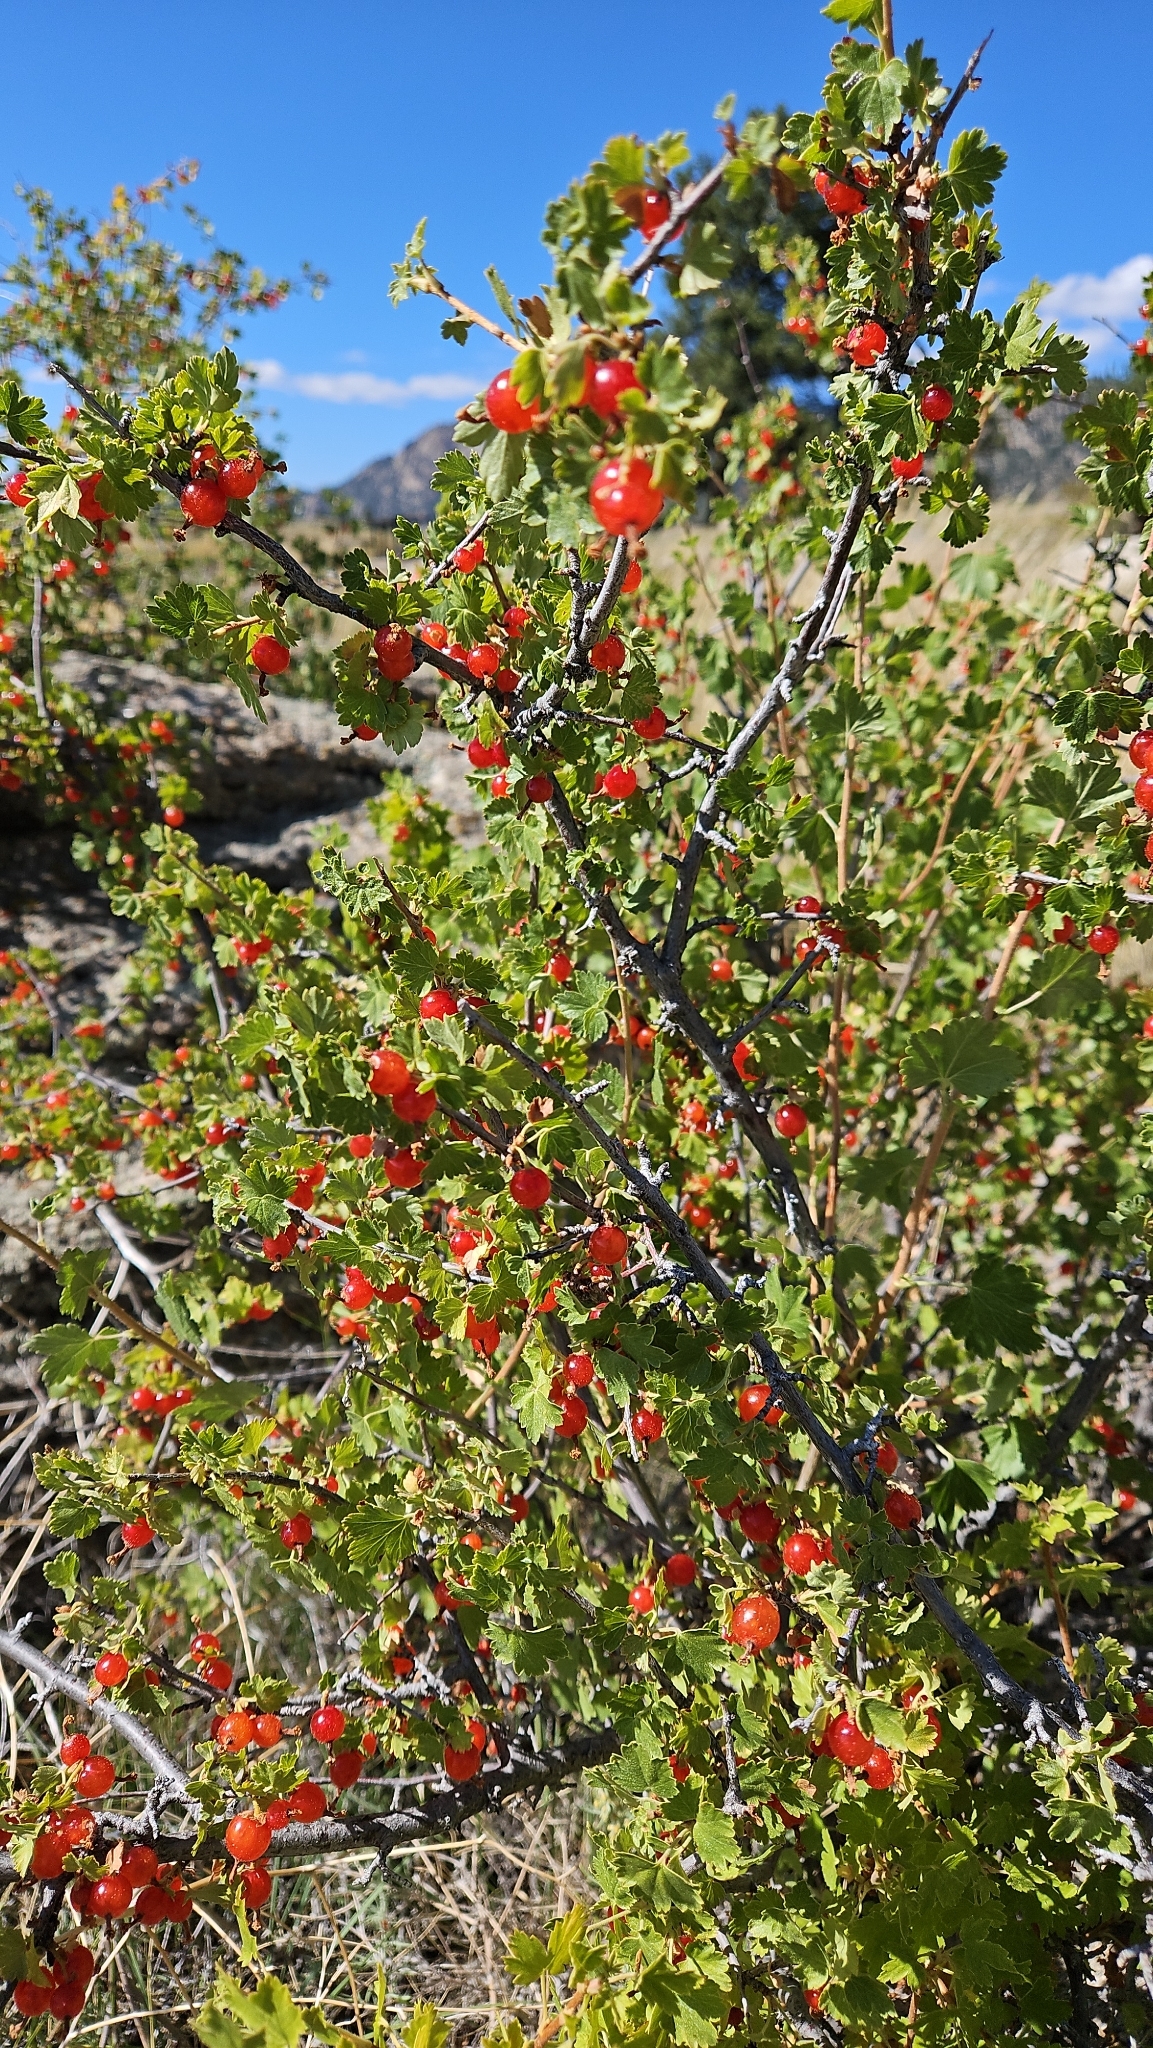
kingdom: Plantae
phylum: Tracheophyta
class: Magnoliopsida
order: Saxifragales
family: Grossulariaceae
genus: Ribes
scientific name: Ribes cereum
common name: Wax currant
